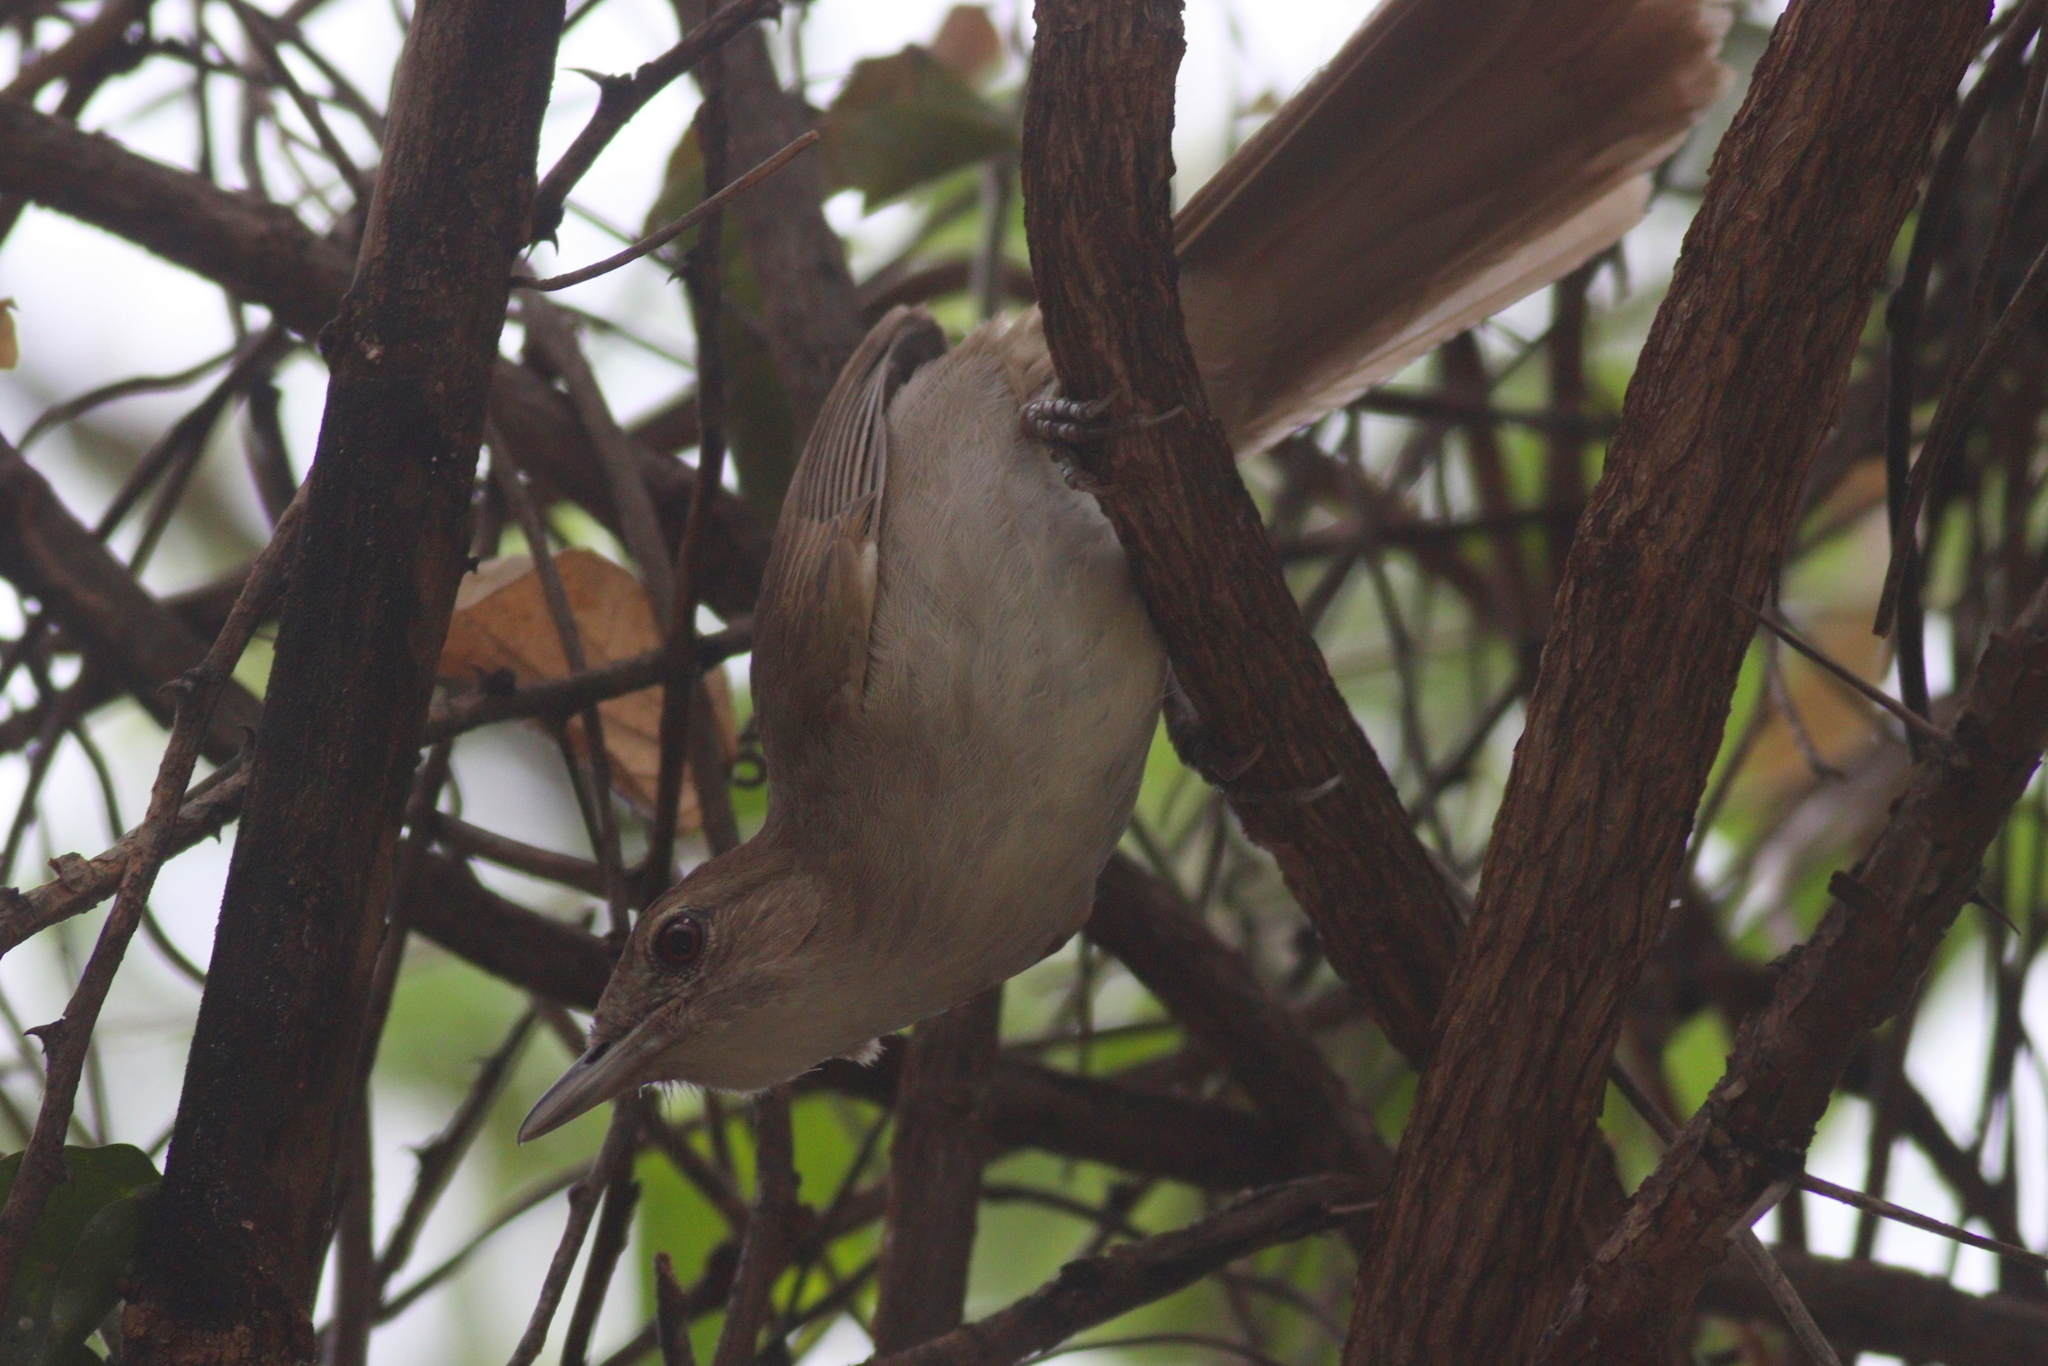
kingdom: Animalia
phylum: Chordata
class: Aves
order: Passeriformes
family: Pycnonotidae
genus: Phyllastrephus
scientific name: Phyllastrephus terrestris
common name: Terrestrial brownbul
